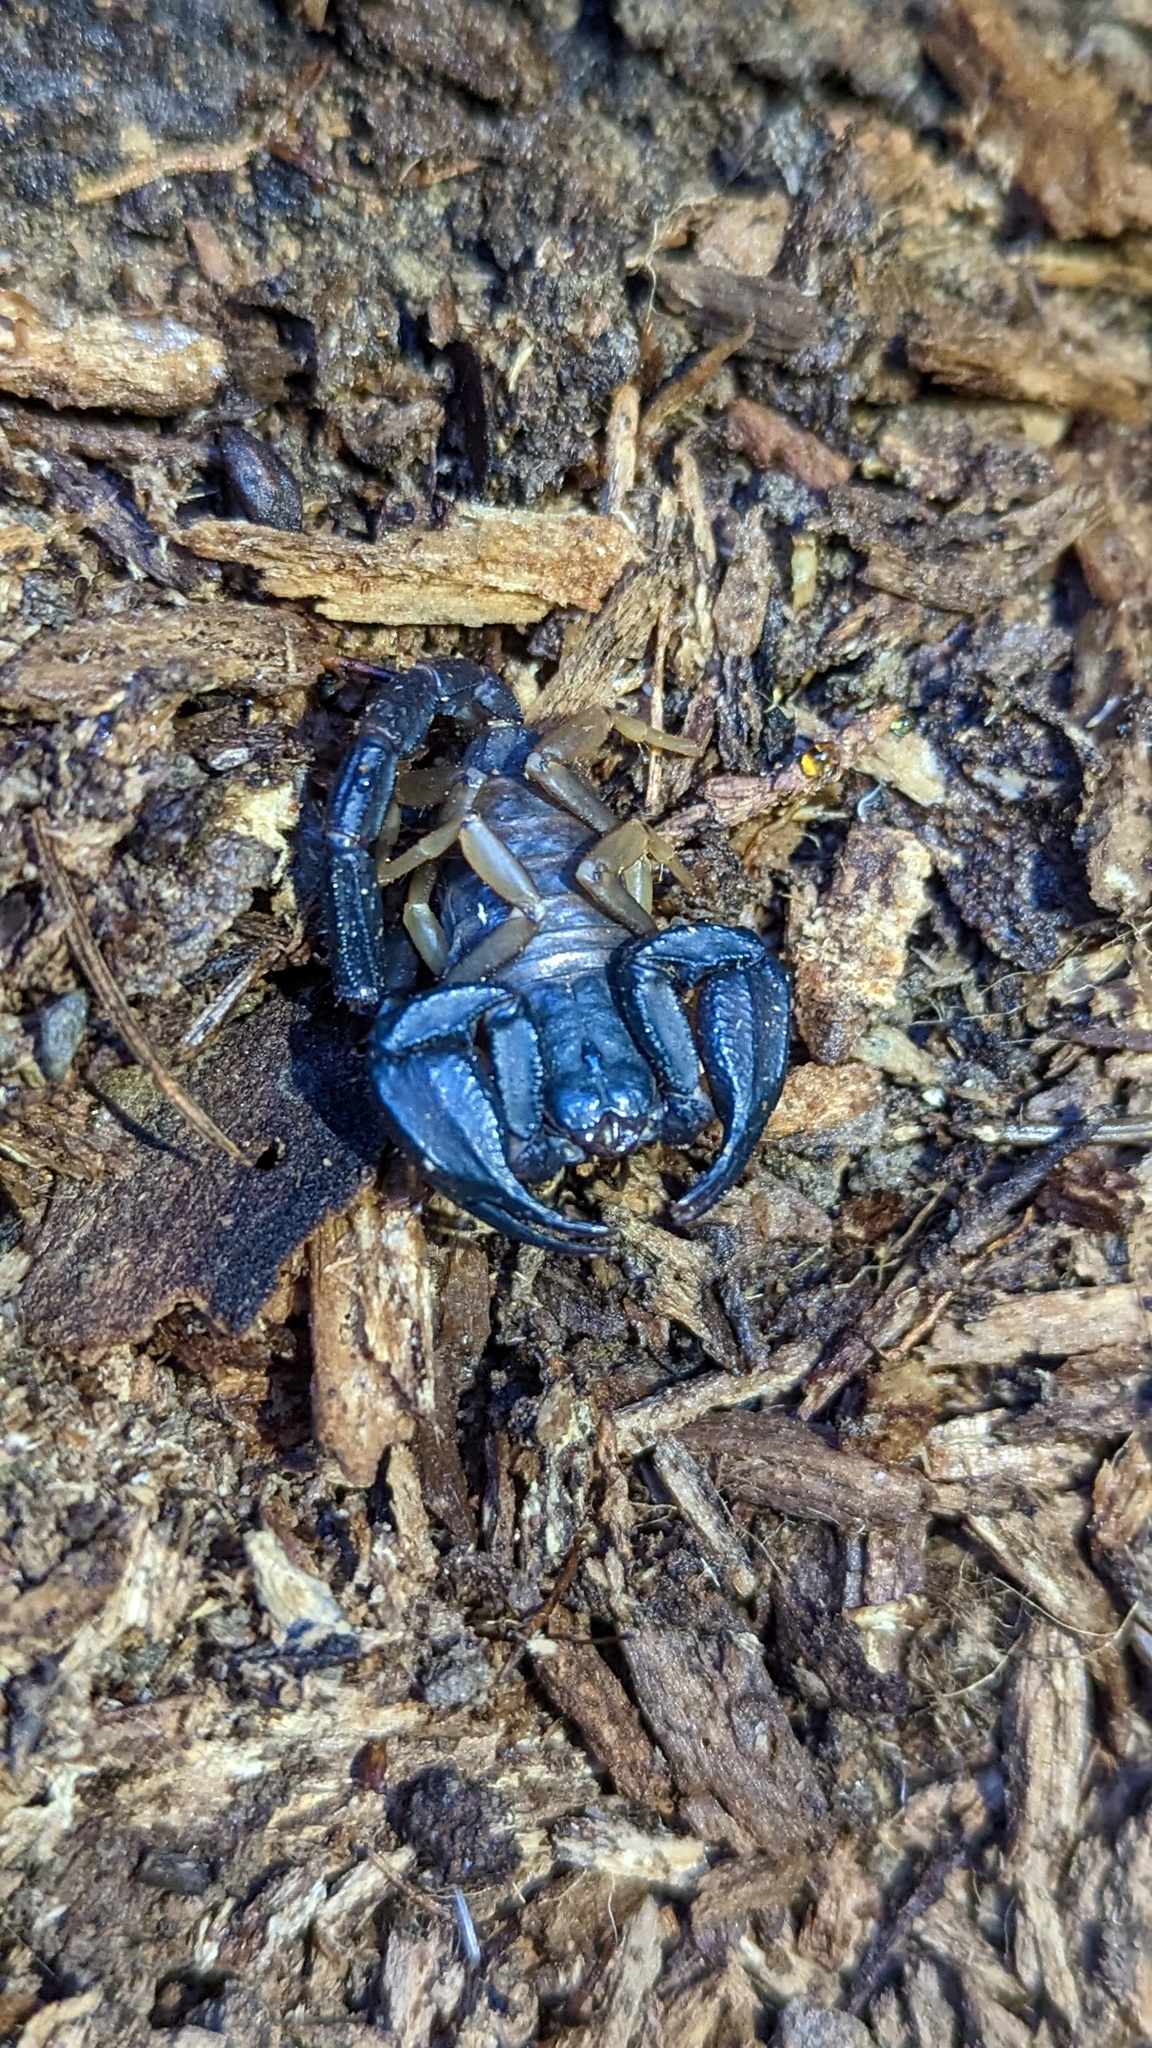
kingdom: Animalia
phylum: Arthropoda
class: Arachnida
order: Scorpiones
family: Chactidae
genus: Uroctonus
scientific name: Uroctonus mordax
